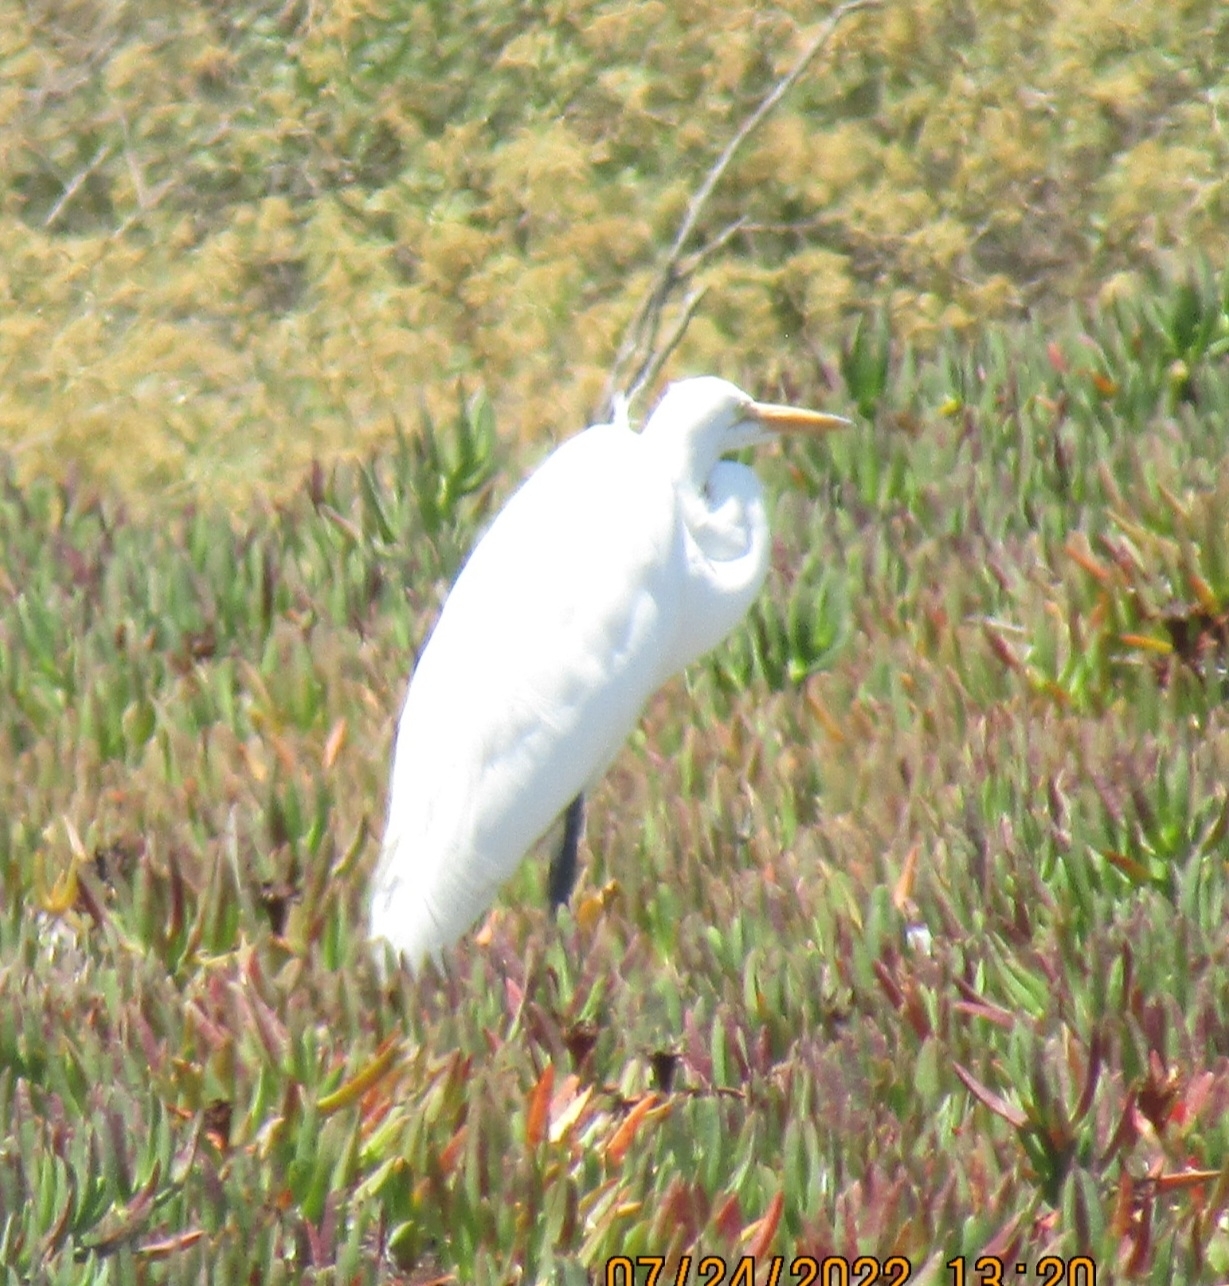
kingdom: Animalia
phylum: Chordata
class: Aves
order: Pelecaniformes
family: Ardeidae
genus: Ardea
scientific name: Ardea alba
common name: Great egret
